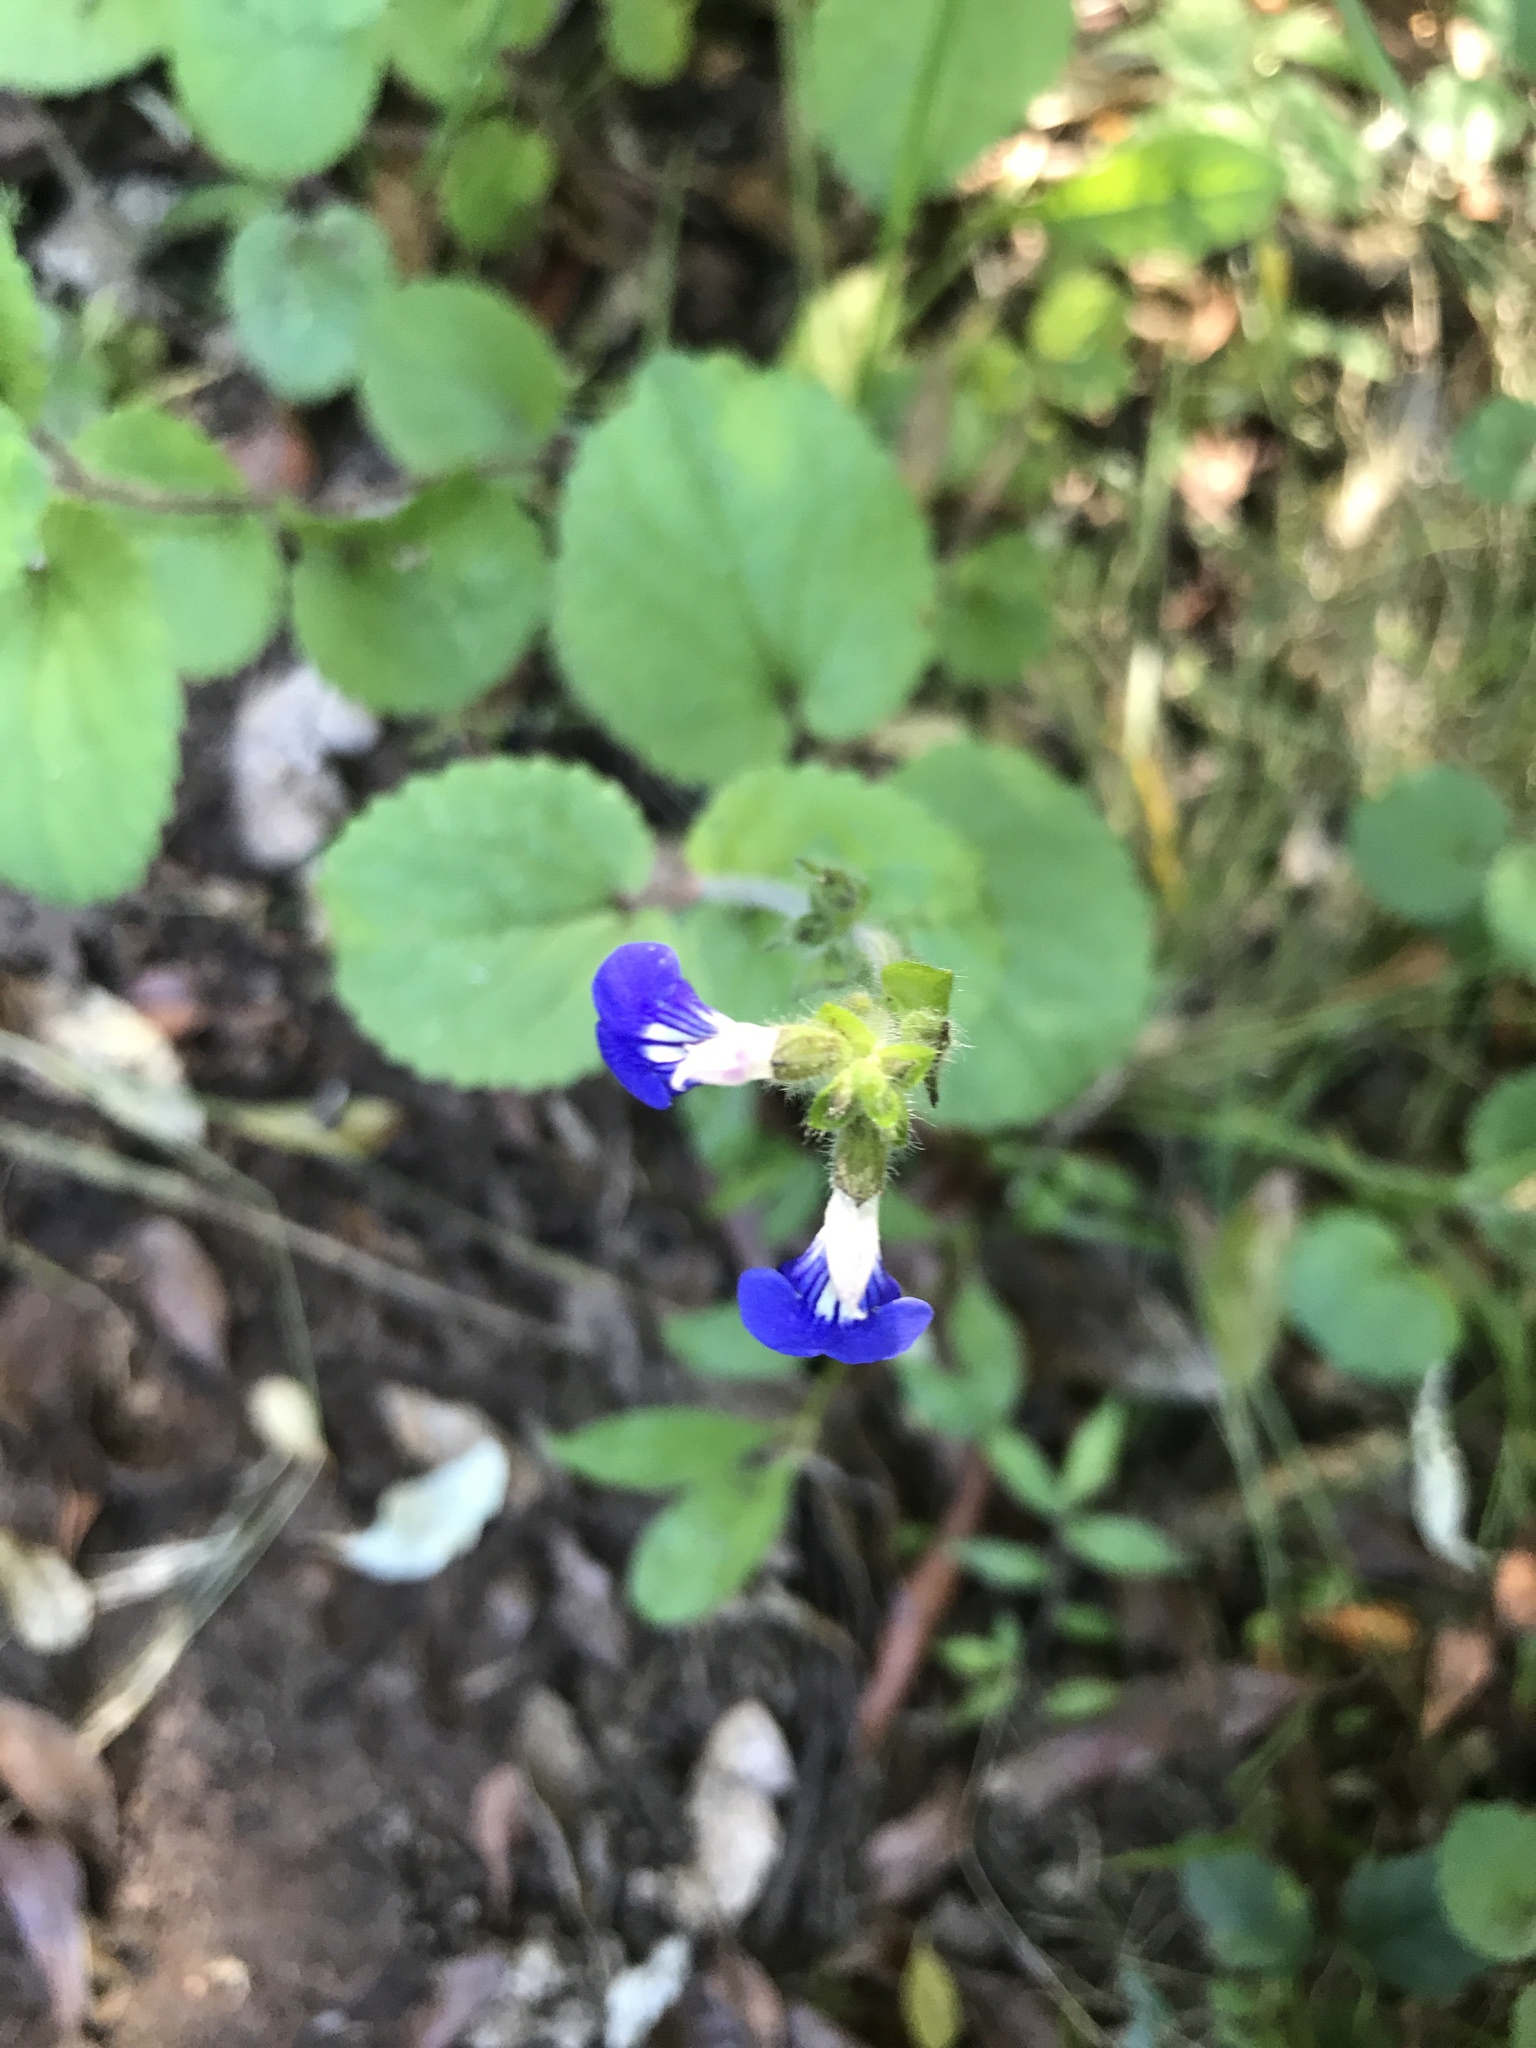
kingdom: Plantae
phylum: Tracheophyta
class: Magnoliopsida
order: Lamiales
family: Lamiaceae
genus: Salvia
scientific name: Salvia procurrens
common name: Blue creeper
